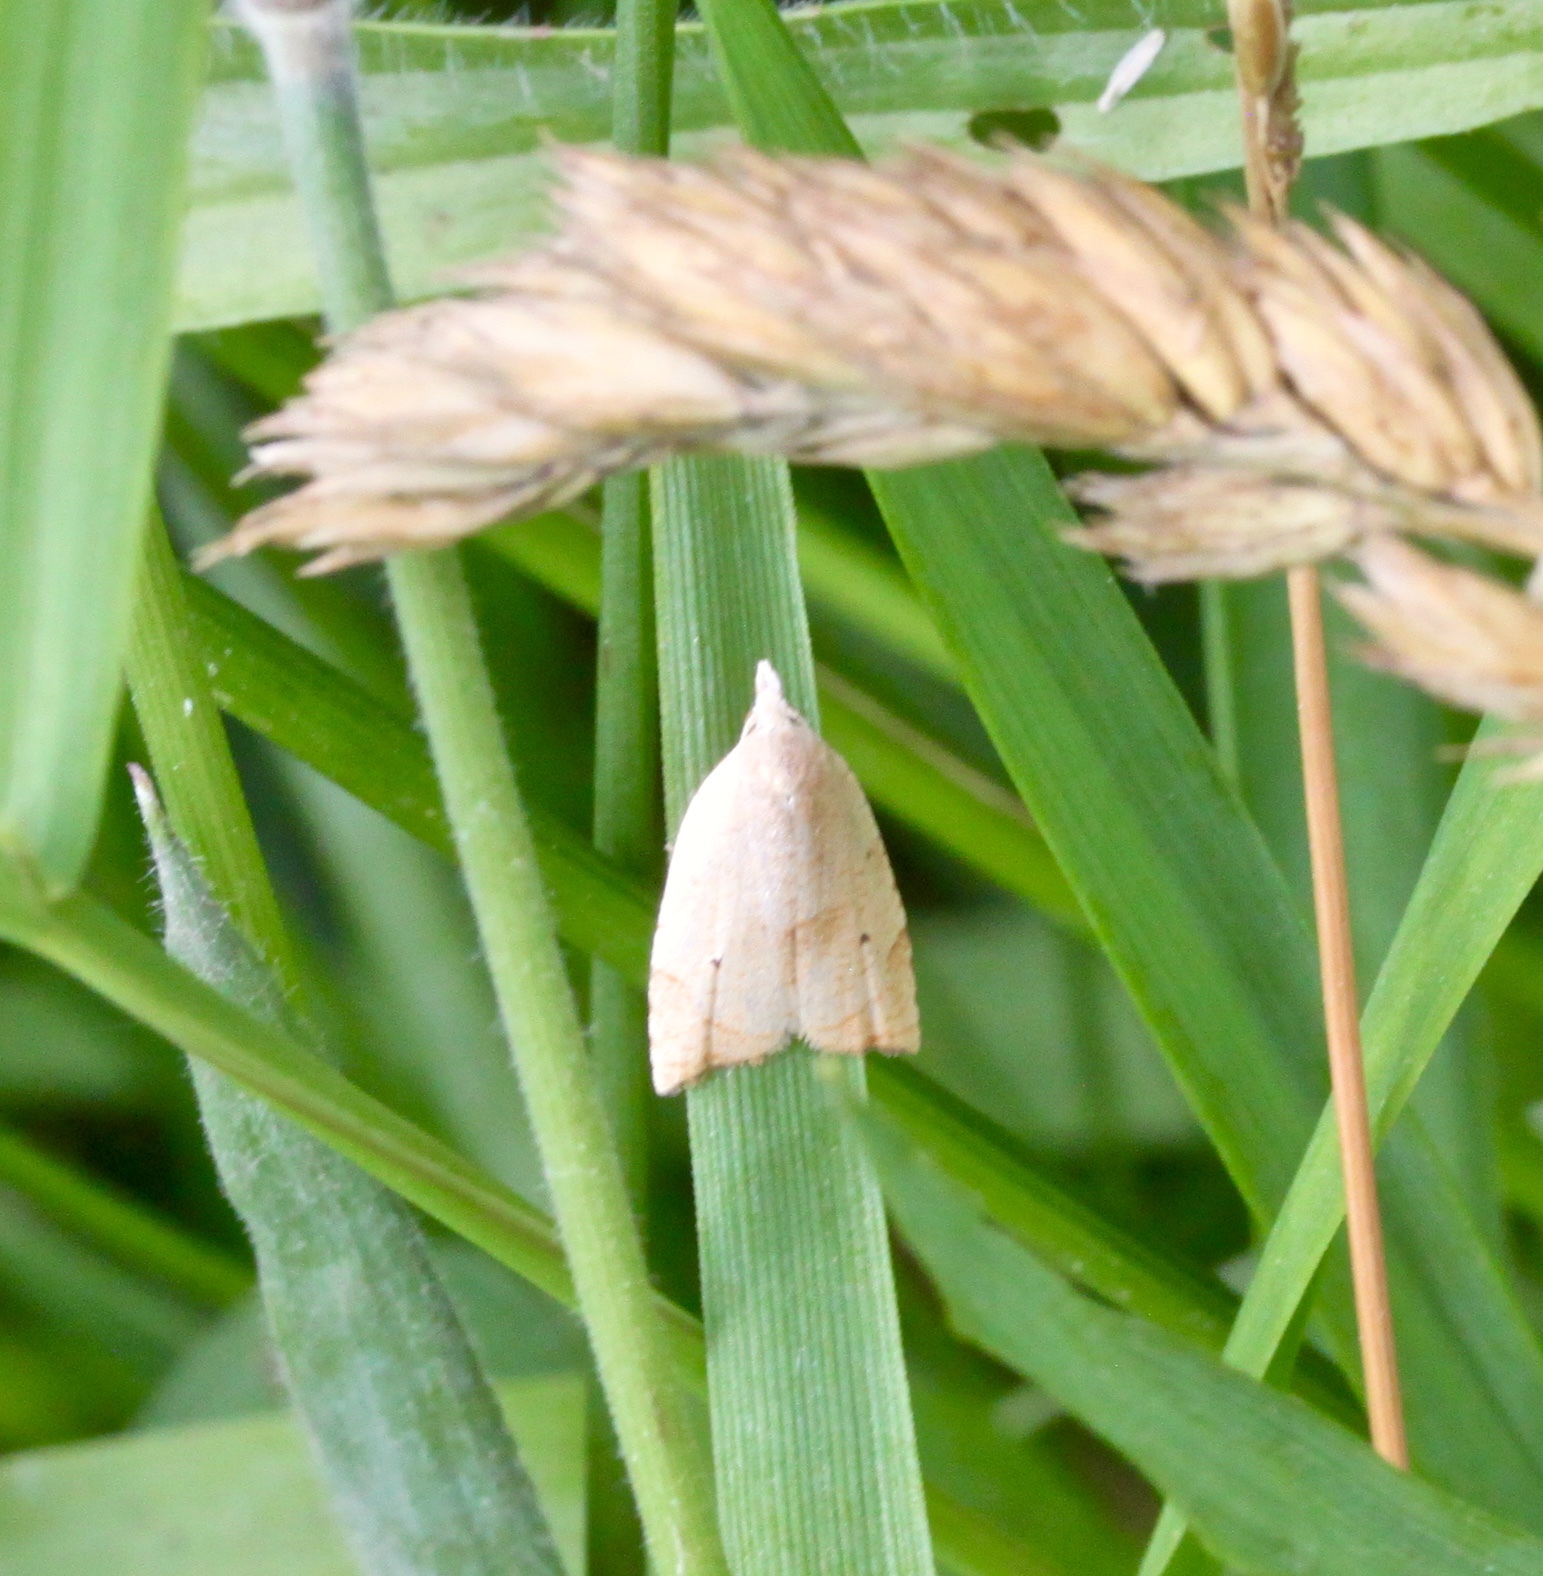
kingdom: Animalia
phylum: Arthropoda
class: Insecta
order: Lepidoptera
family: Tortricidae
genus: Coelostathma
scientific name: Coelostathma discopunctana
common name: Batman moth
